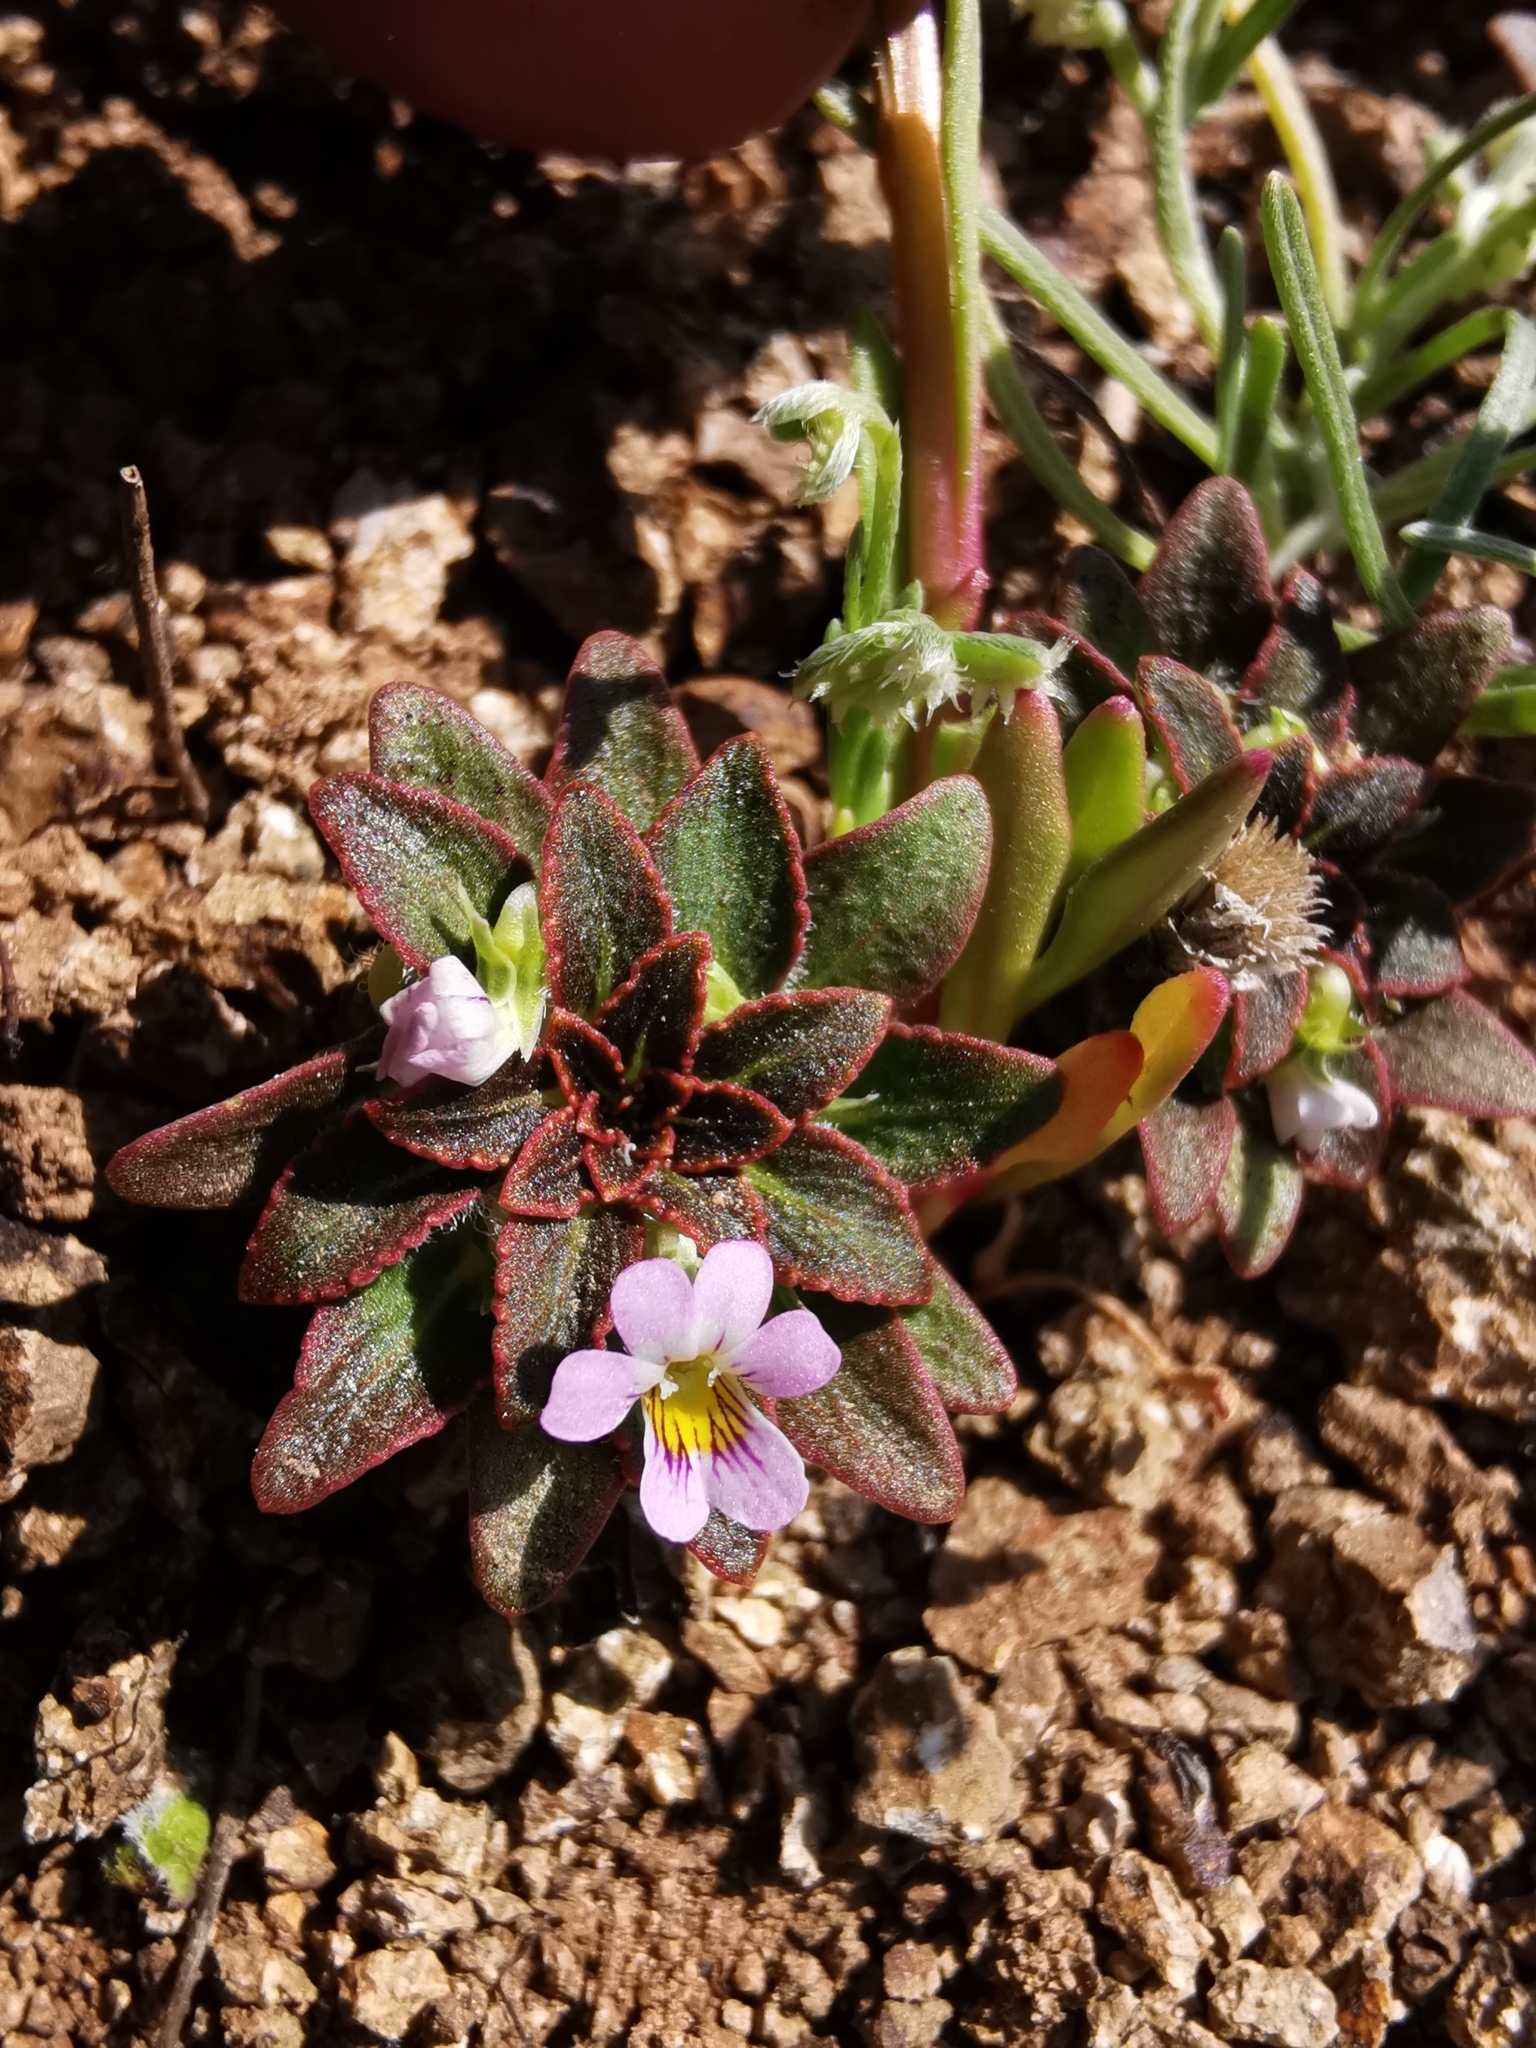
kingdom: Plantae
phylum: Tracheophyta
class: Magnoliopsida
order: Malpighiales
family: Violaceae
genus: Viola
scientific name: Viola subandina
